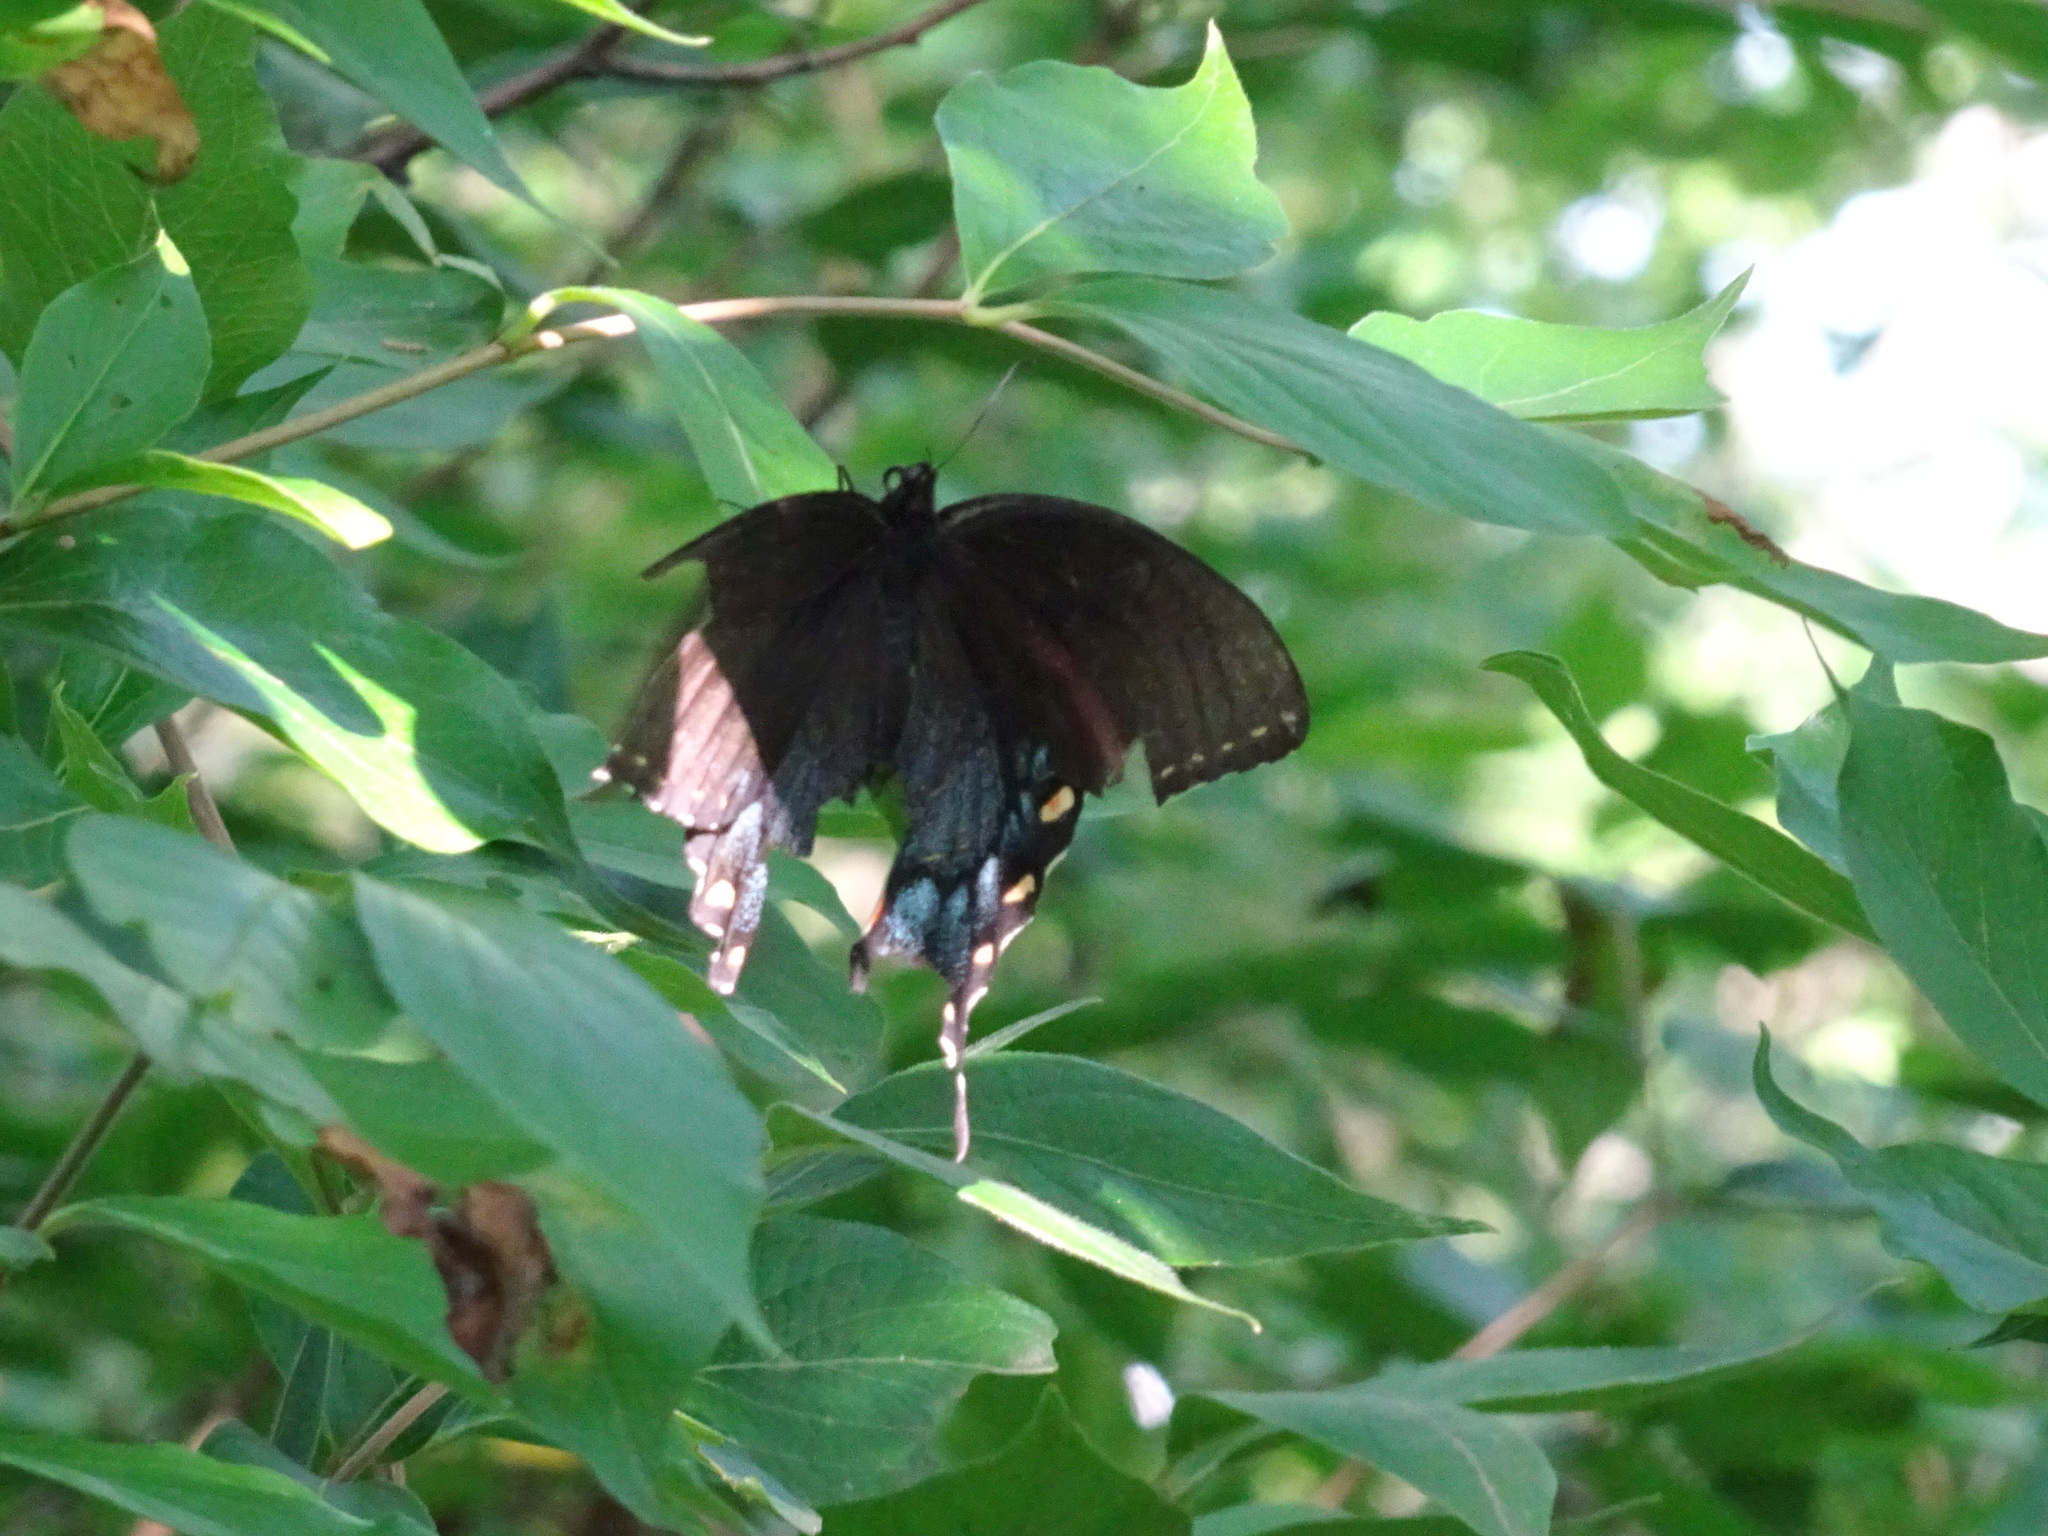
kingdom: Animalia
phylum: Arthropoda
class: Insecta
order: Lepidoptera
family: Papilionidae
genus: Papilio
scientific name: Papilio glaucus
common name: Tiger swallowtail
